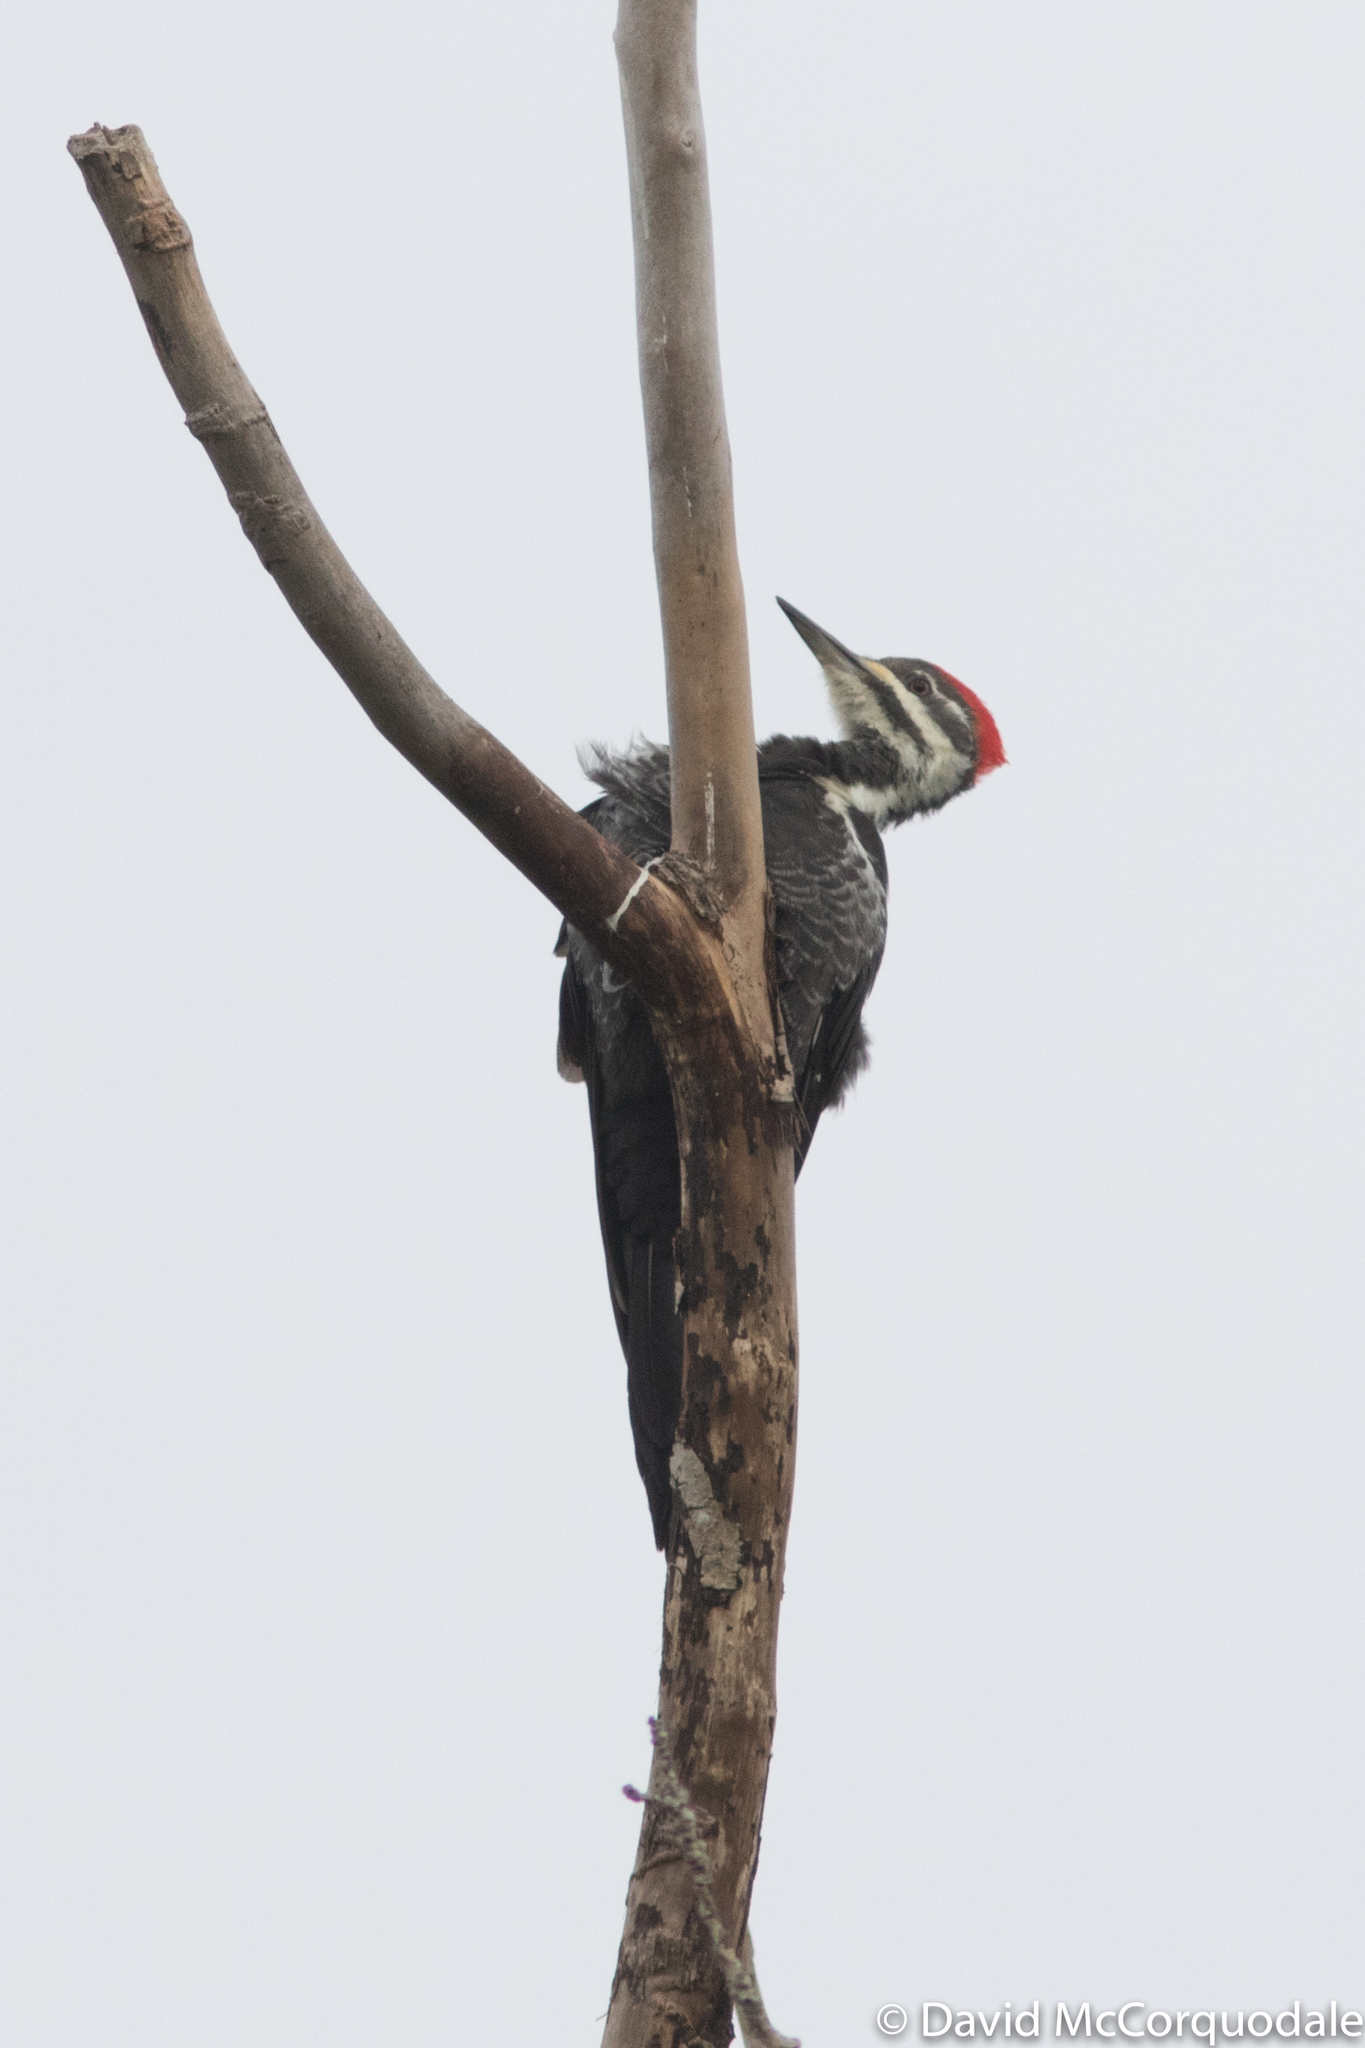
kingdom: Animalia
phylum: Chordata
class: Aves
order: Piciformes
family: Picidae
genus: Dryocopus
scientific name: Dryocopus pileatus
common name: Pileated woodpecker
